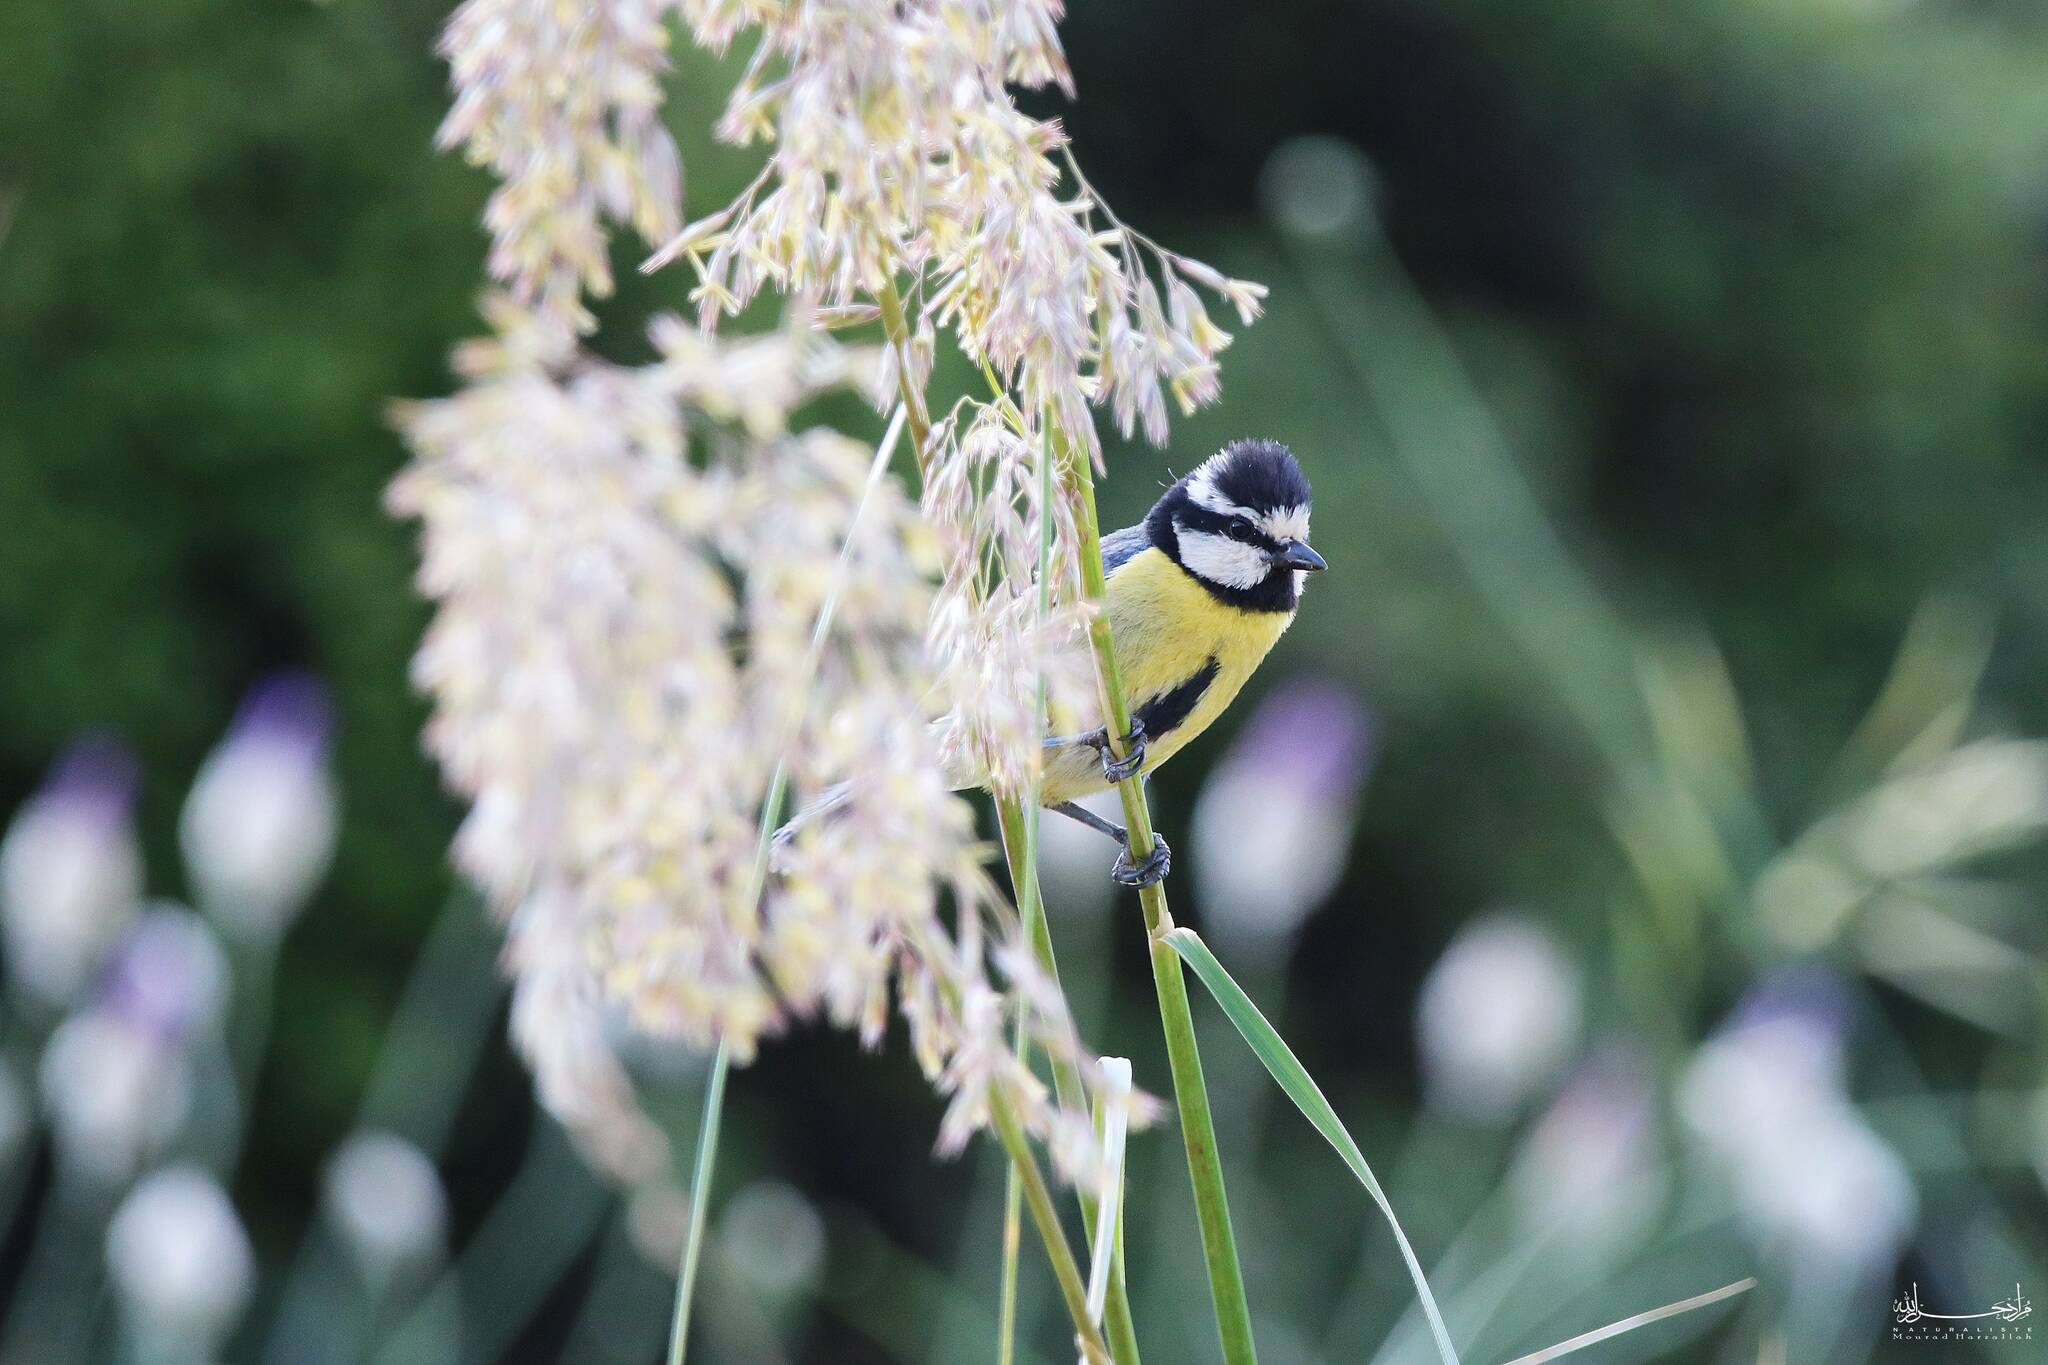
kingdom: Animalia
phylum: Chordata
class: Aves
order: Passeriformes
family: Paridae
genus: Cyanistes
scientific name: Cyanistes teneriffae
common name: African blue tit
